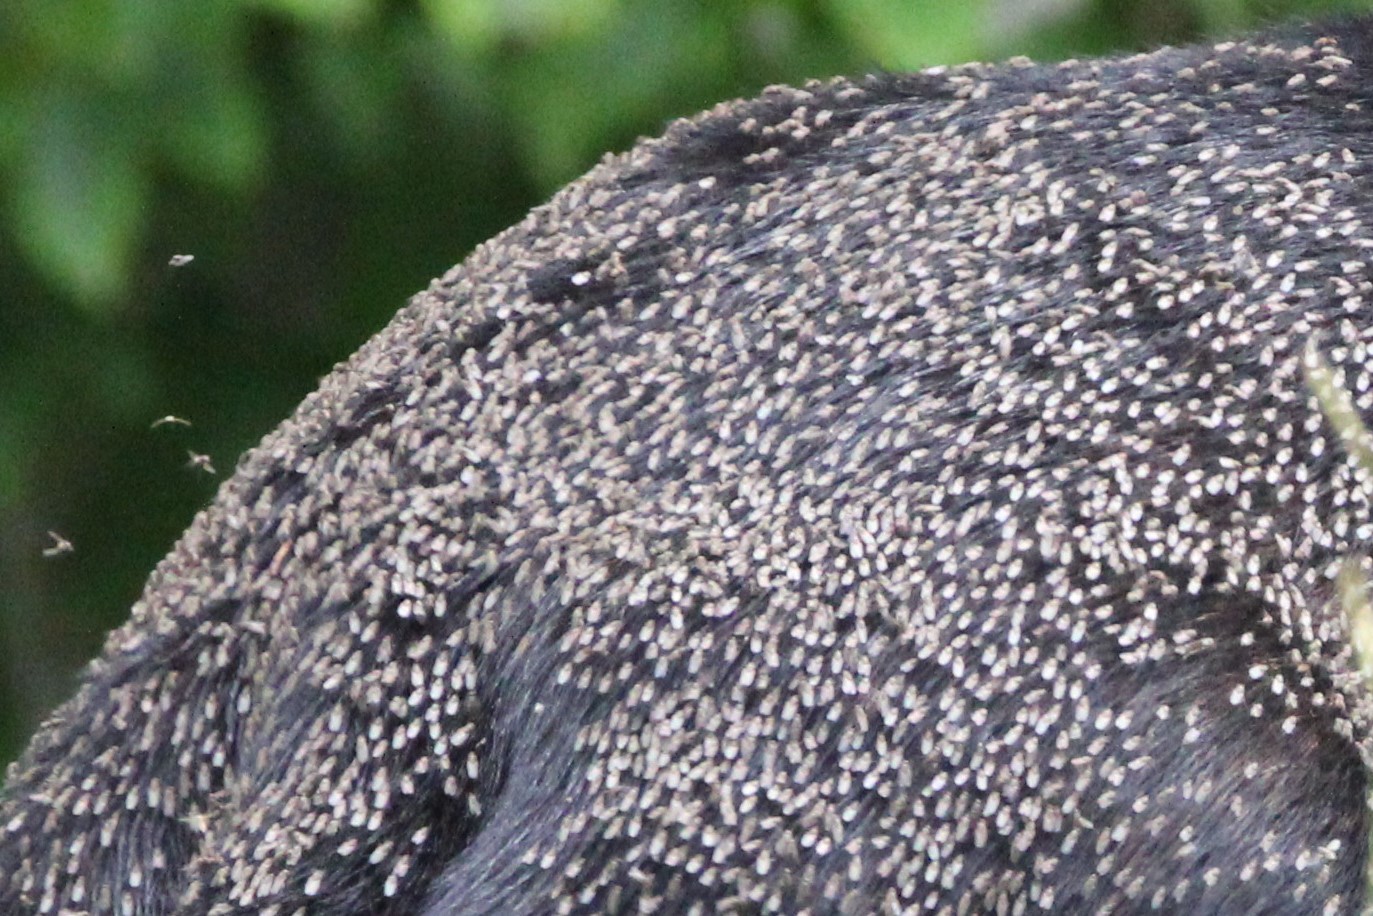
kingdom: Animalia
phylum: Arthropoda
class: Insecta
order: Diptera
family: Muscidae
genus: Haematobosca
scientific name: Haematobosca alcis
